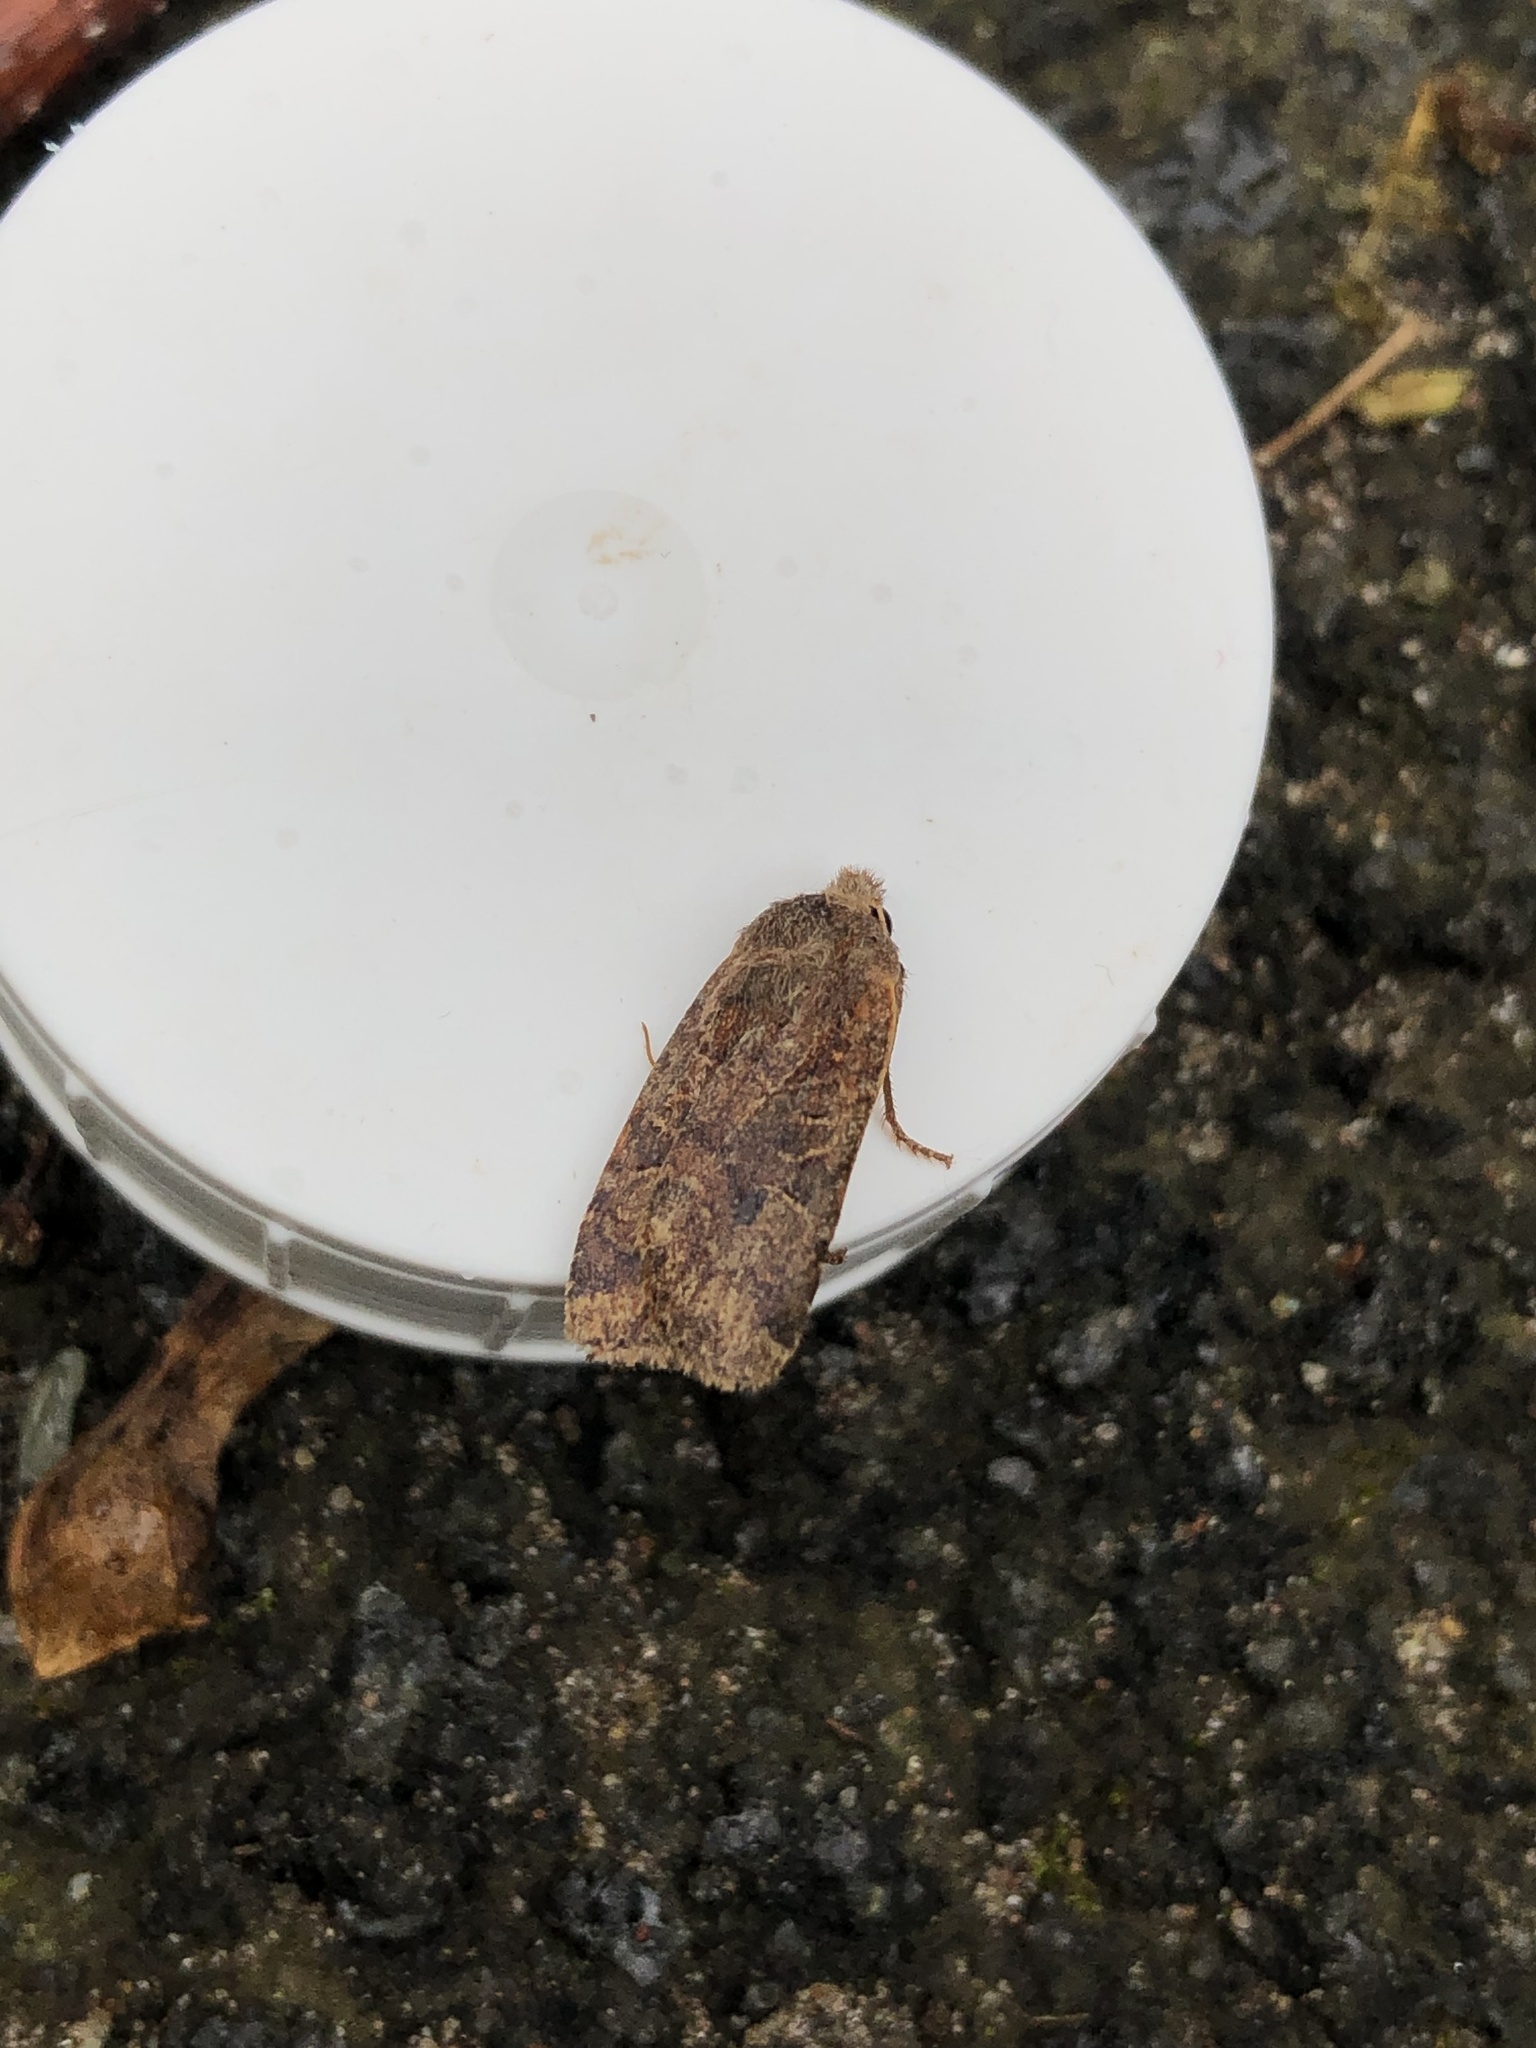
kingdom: Animalia
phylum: Arthropoda
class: Insecta
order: Lepidoptera
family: Noctuidae
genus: Conistra
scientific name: Conistra vaccinii
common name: Chestnut
